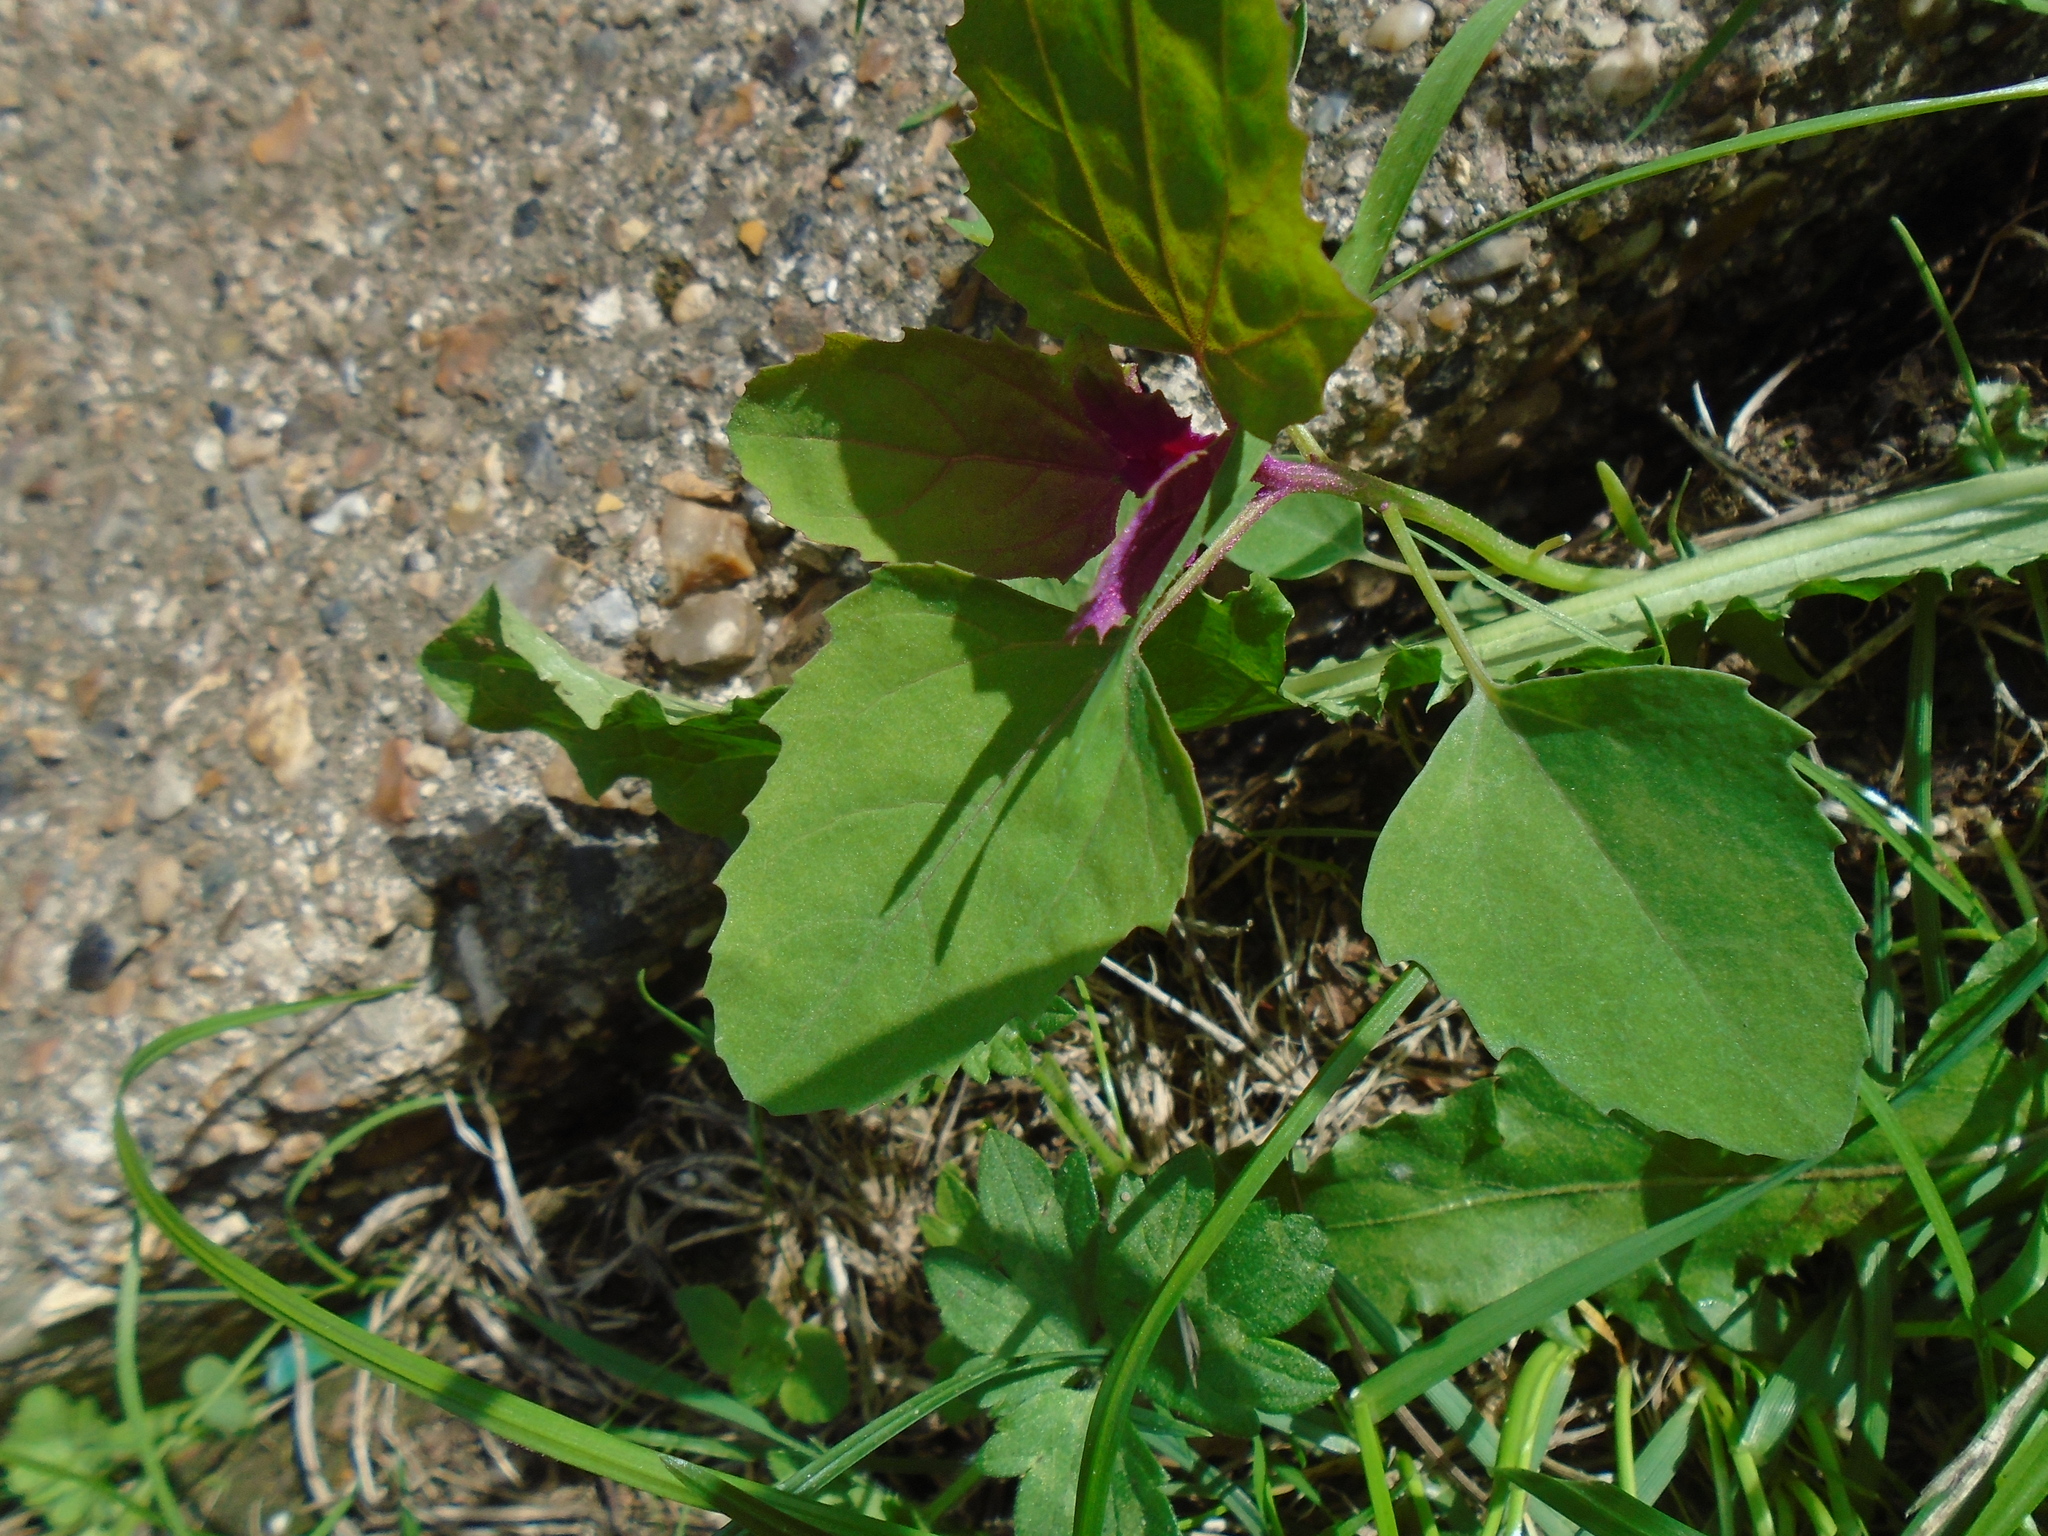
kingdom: Plantae
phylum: Tracheophyta
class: Magnoliopsida
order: Caryophyllales
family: Amaranthaceae
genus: Chenopodium
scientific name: Chenopodium giganteum
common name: Magentaspreen
